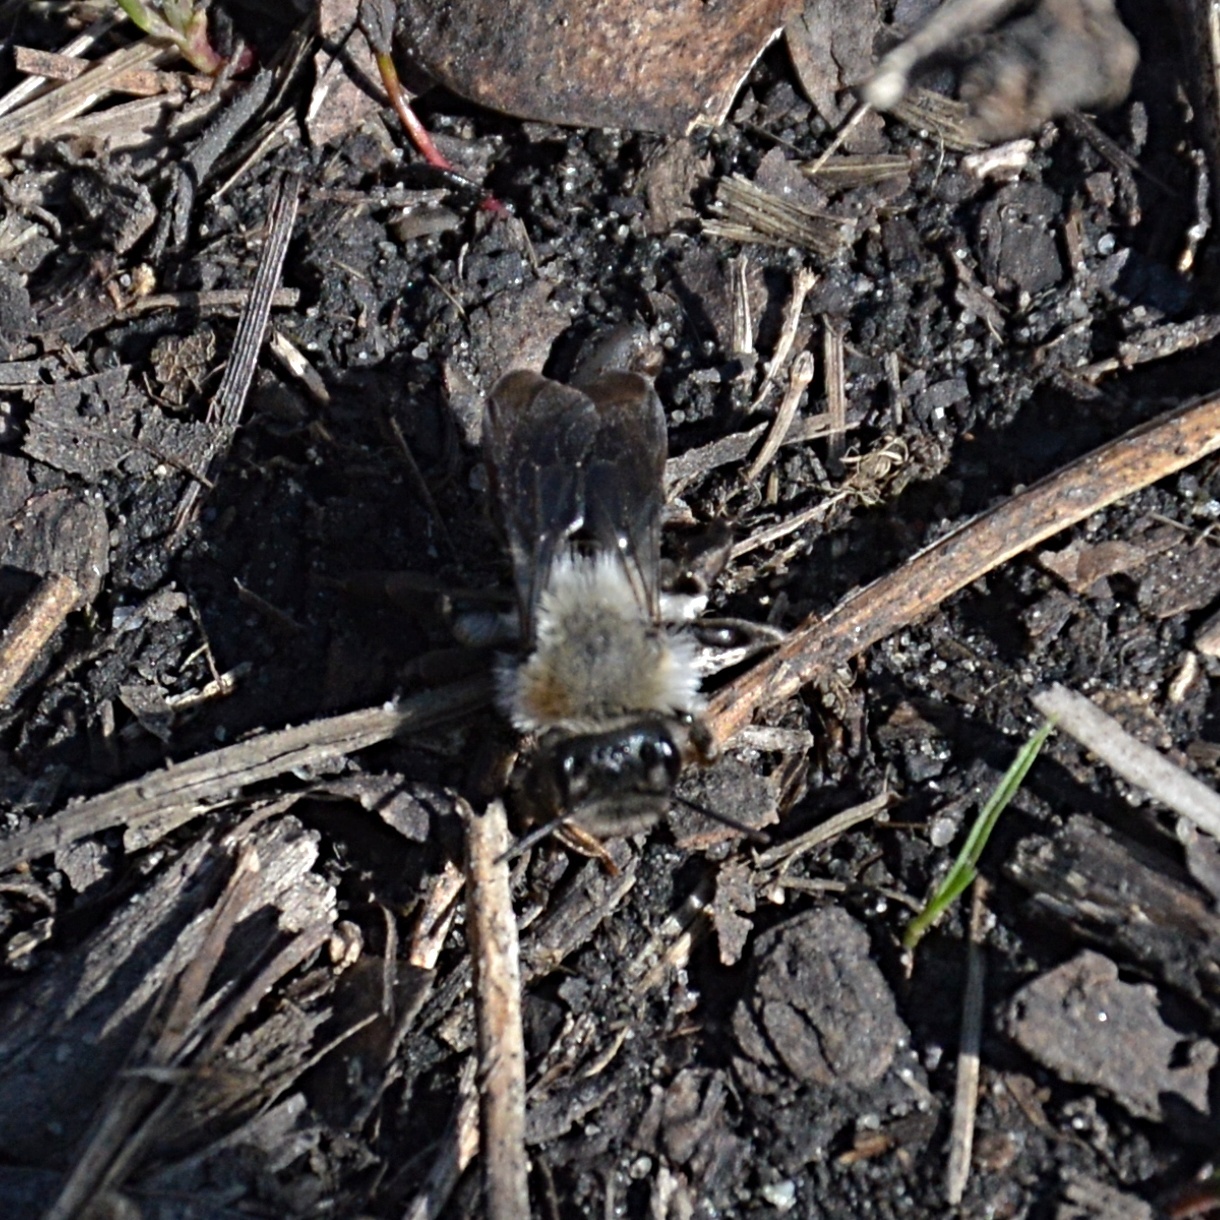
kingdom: Animalia
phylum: Arthropoda
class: Insecta
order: Hymenoptera
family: Andrenidae
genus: Andrena
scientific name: Andrena vaga
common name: Grey-backed mining bee
